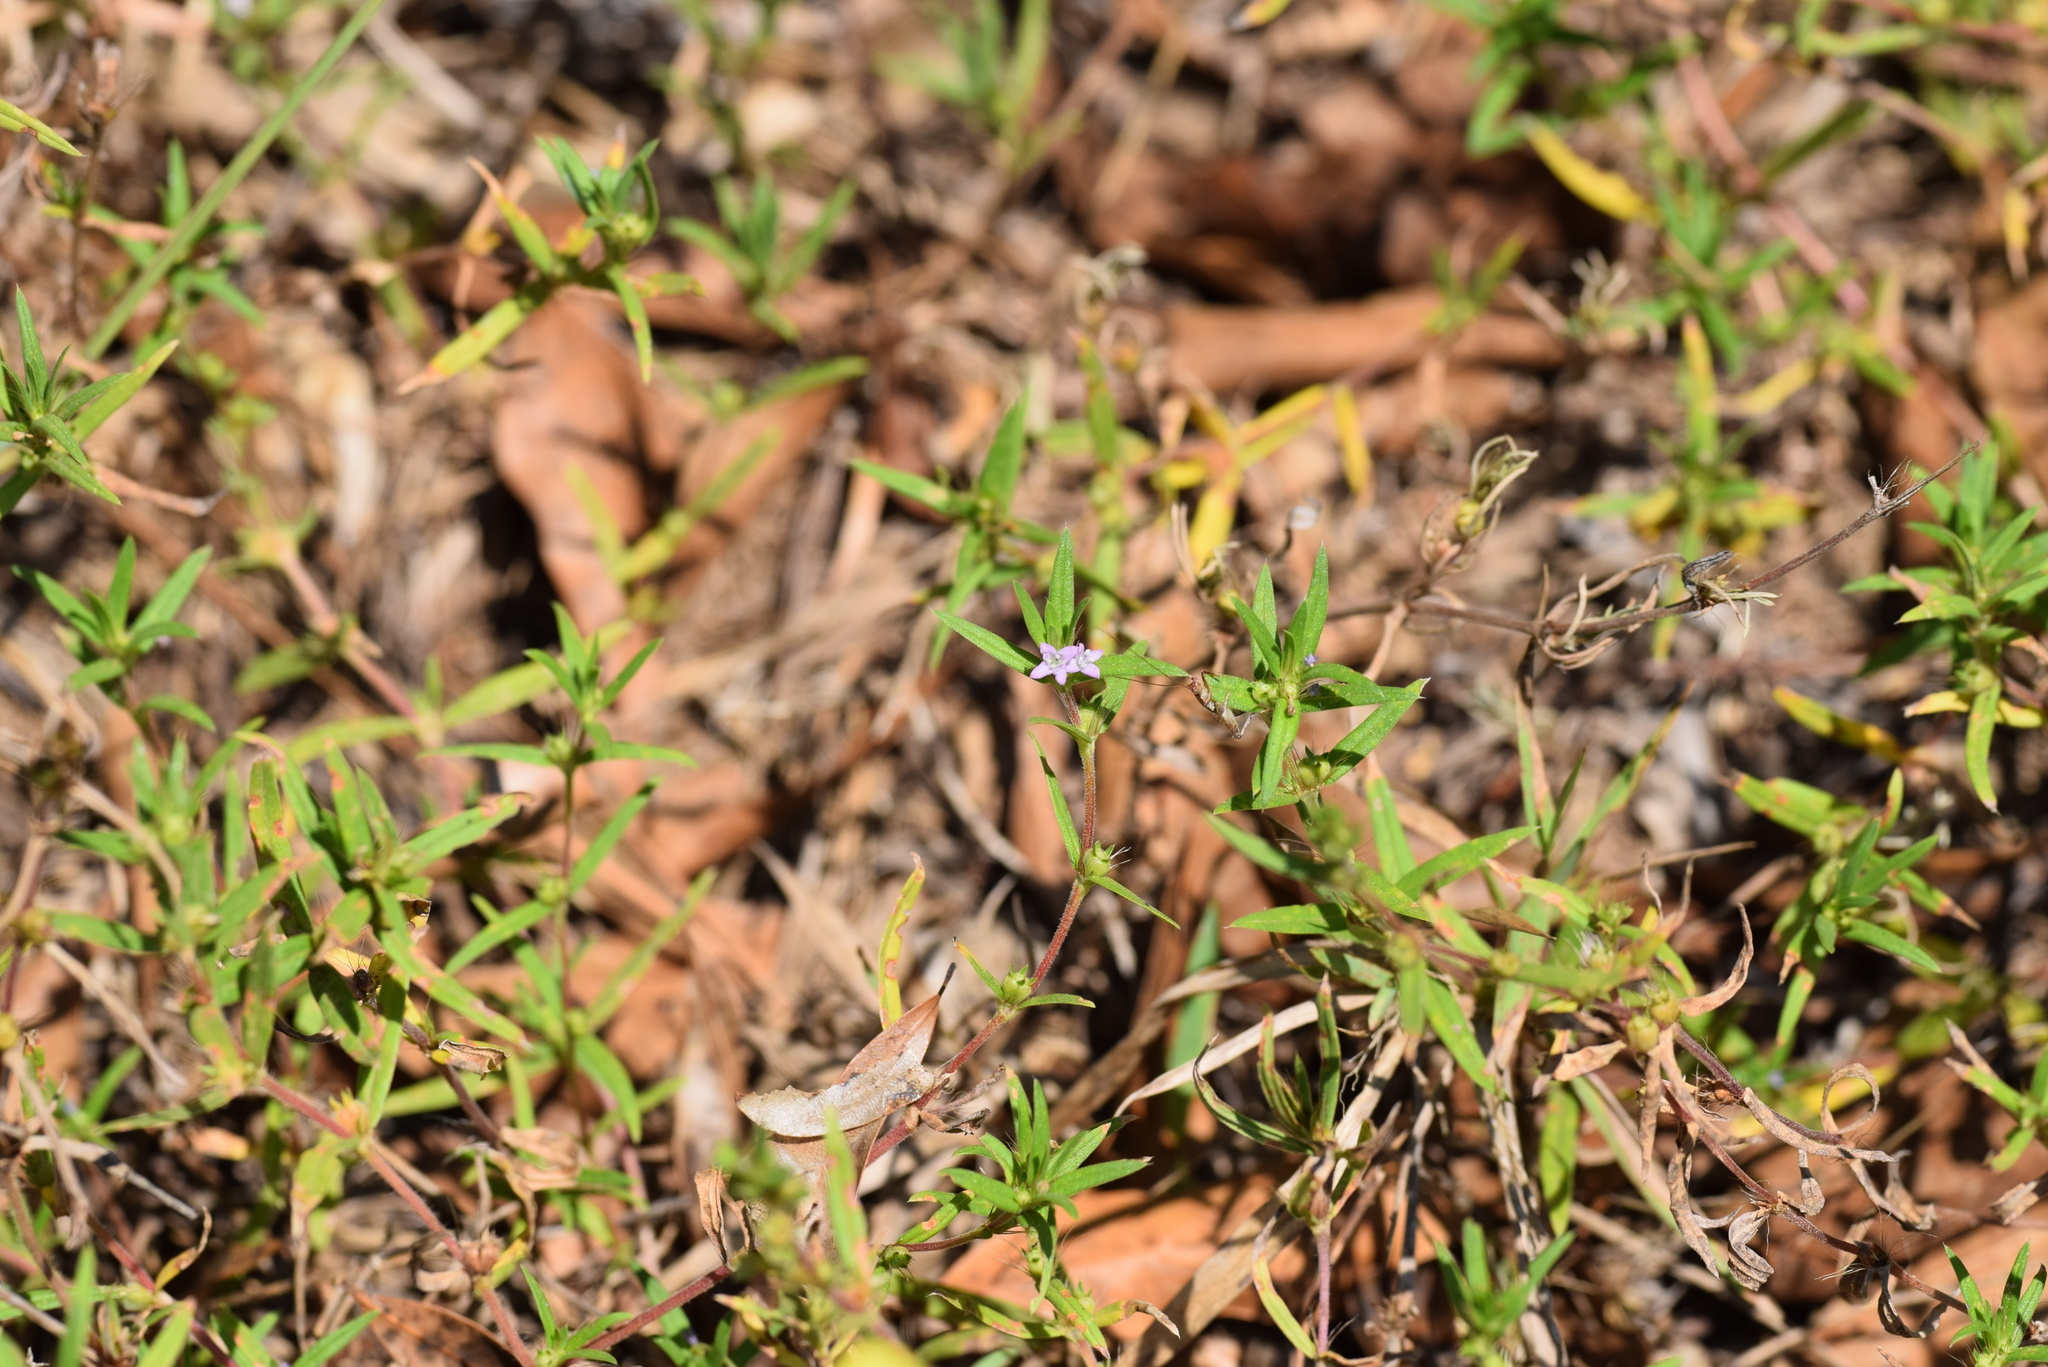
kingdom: Plantae
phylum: Tracheophyta
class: Magnoliopsida
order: Gentianales
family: Rubiaceae
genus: Hexasepalum
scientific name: Hexasepalum teres
